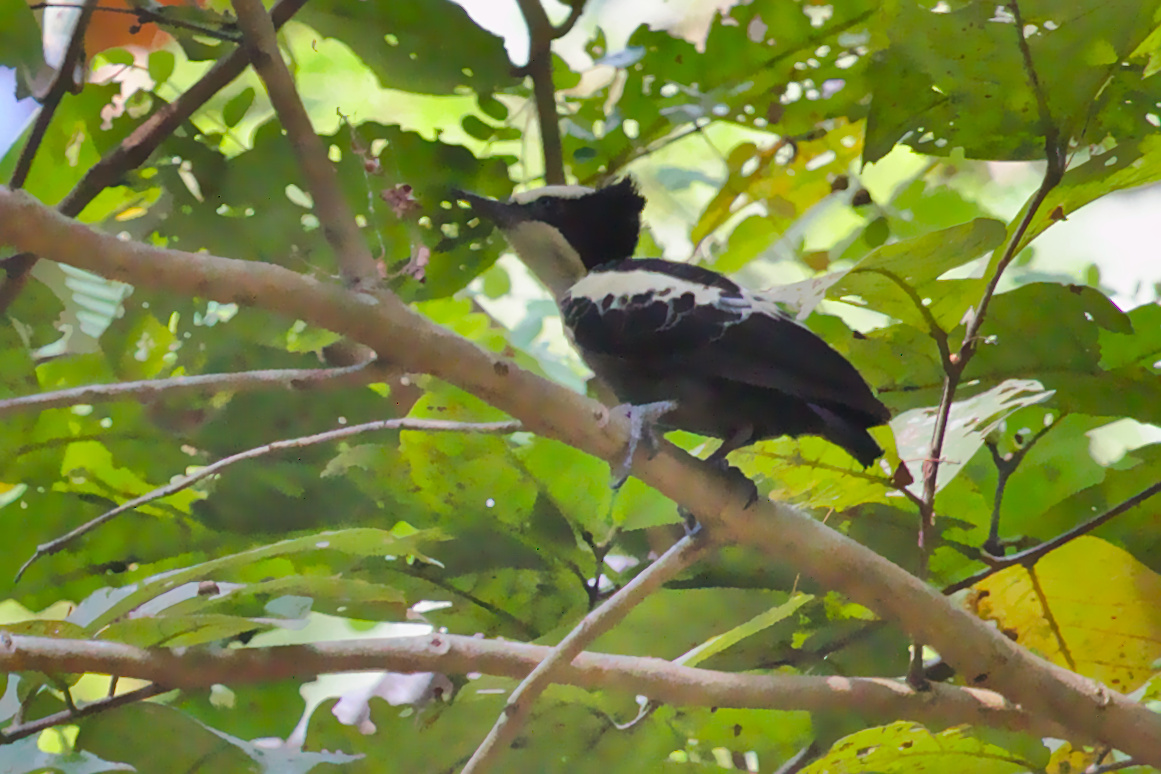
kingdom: Animalia
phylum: Chordata
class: Aves
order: Piciformes
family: Picidae
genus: Hemicircus
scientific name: Hemicircus canente
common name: Heart-spotted woodpecker
